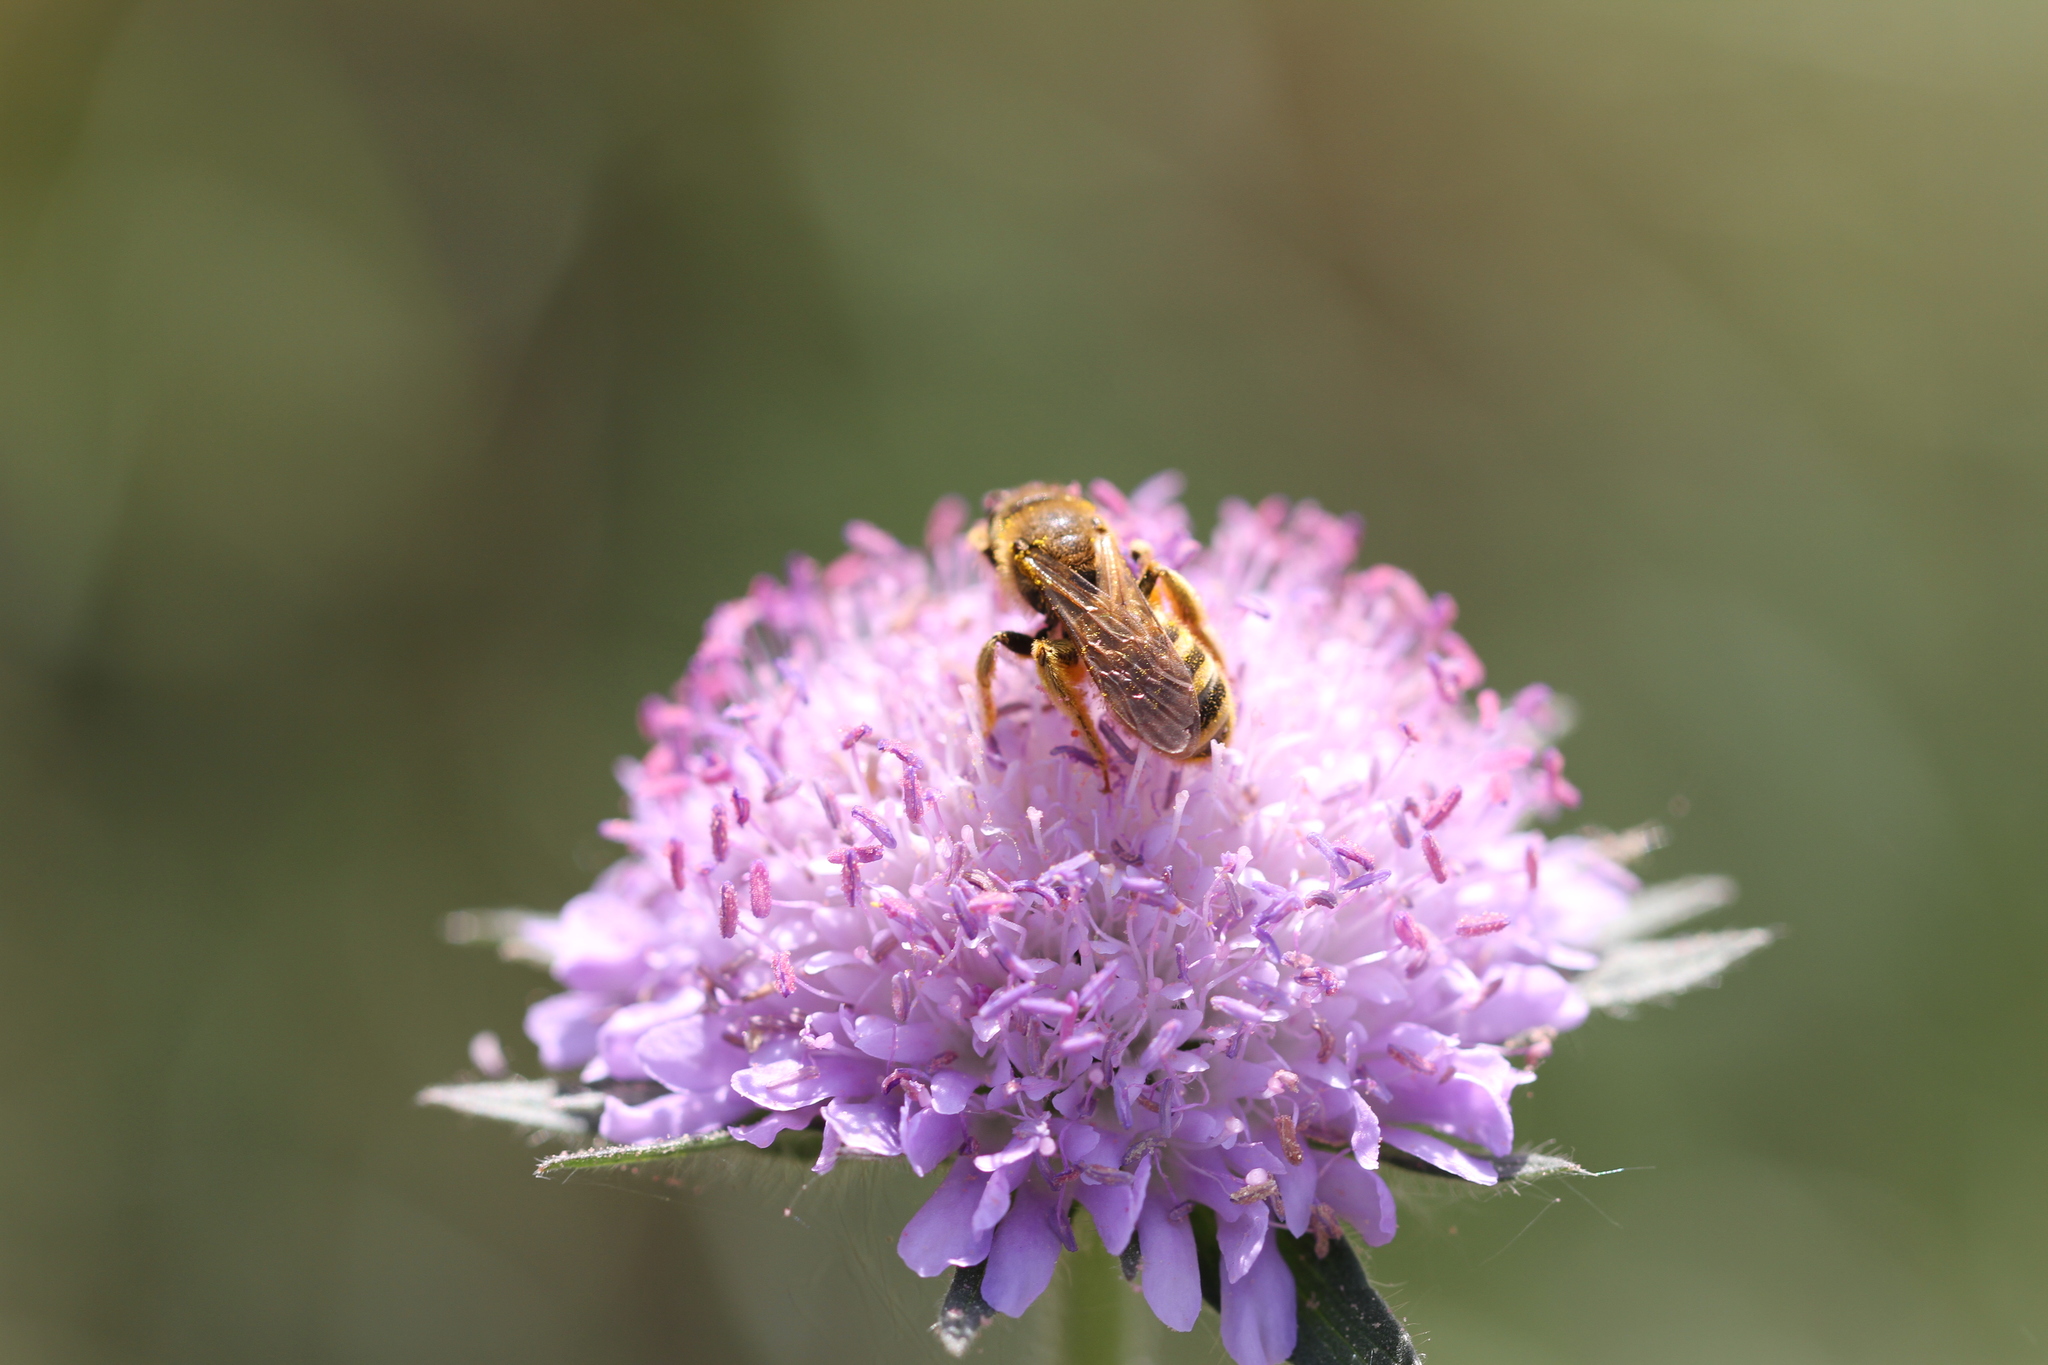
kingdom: Animalia
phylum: Arthropoda
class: Insecta
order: Hymenoptera
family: Halictidae
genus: Halictus
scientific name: Halictus scabiosae
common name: Great banded furrow bee
